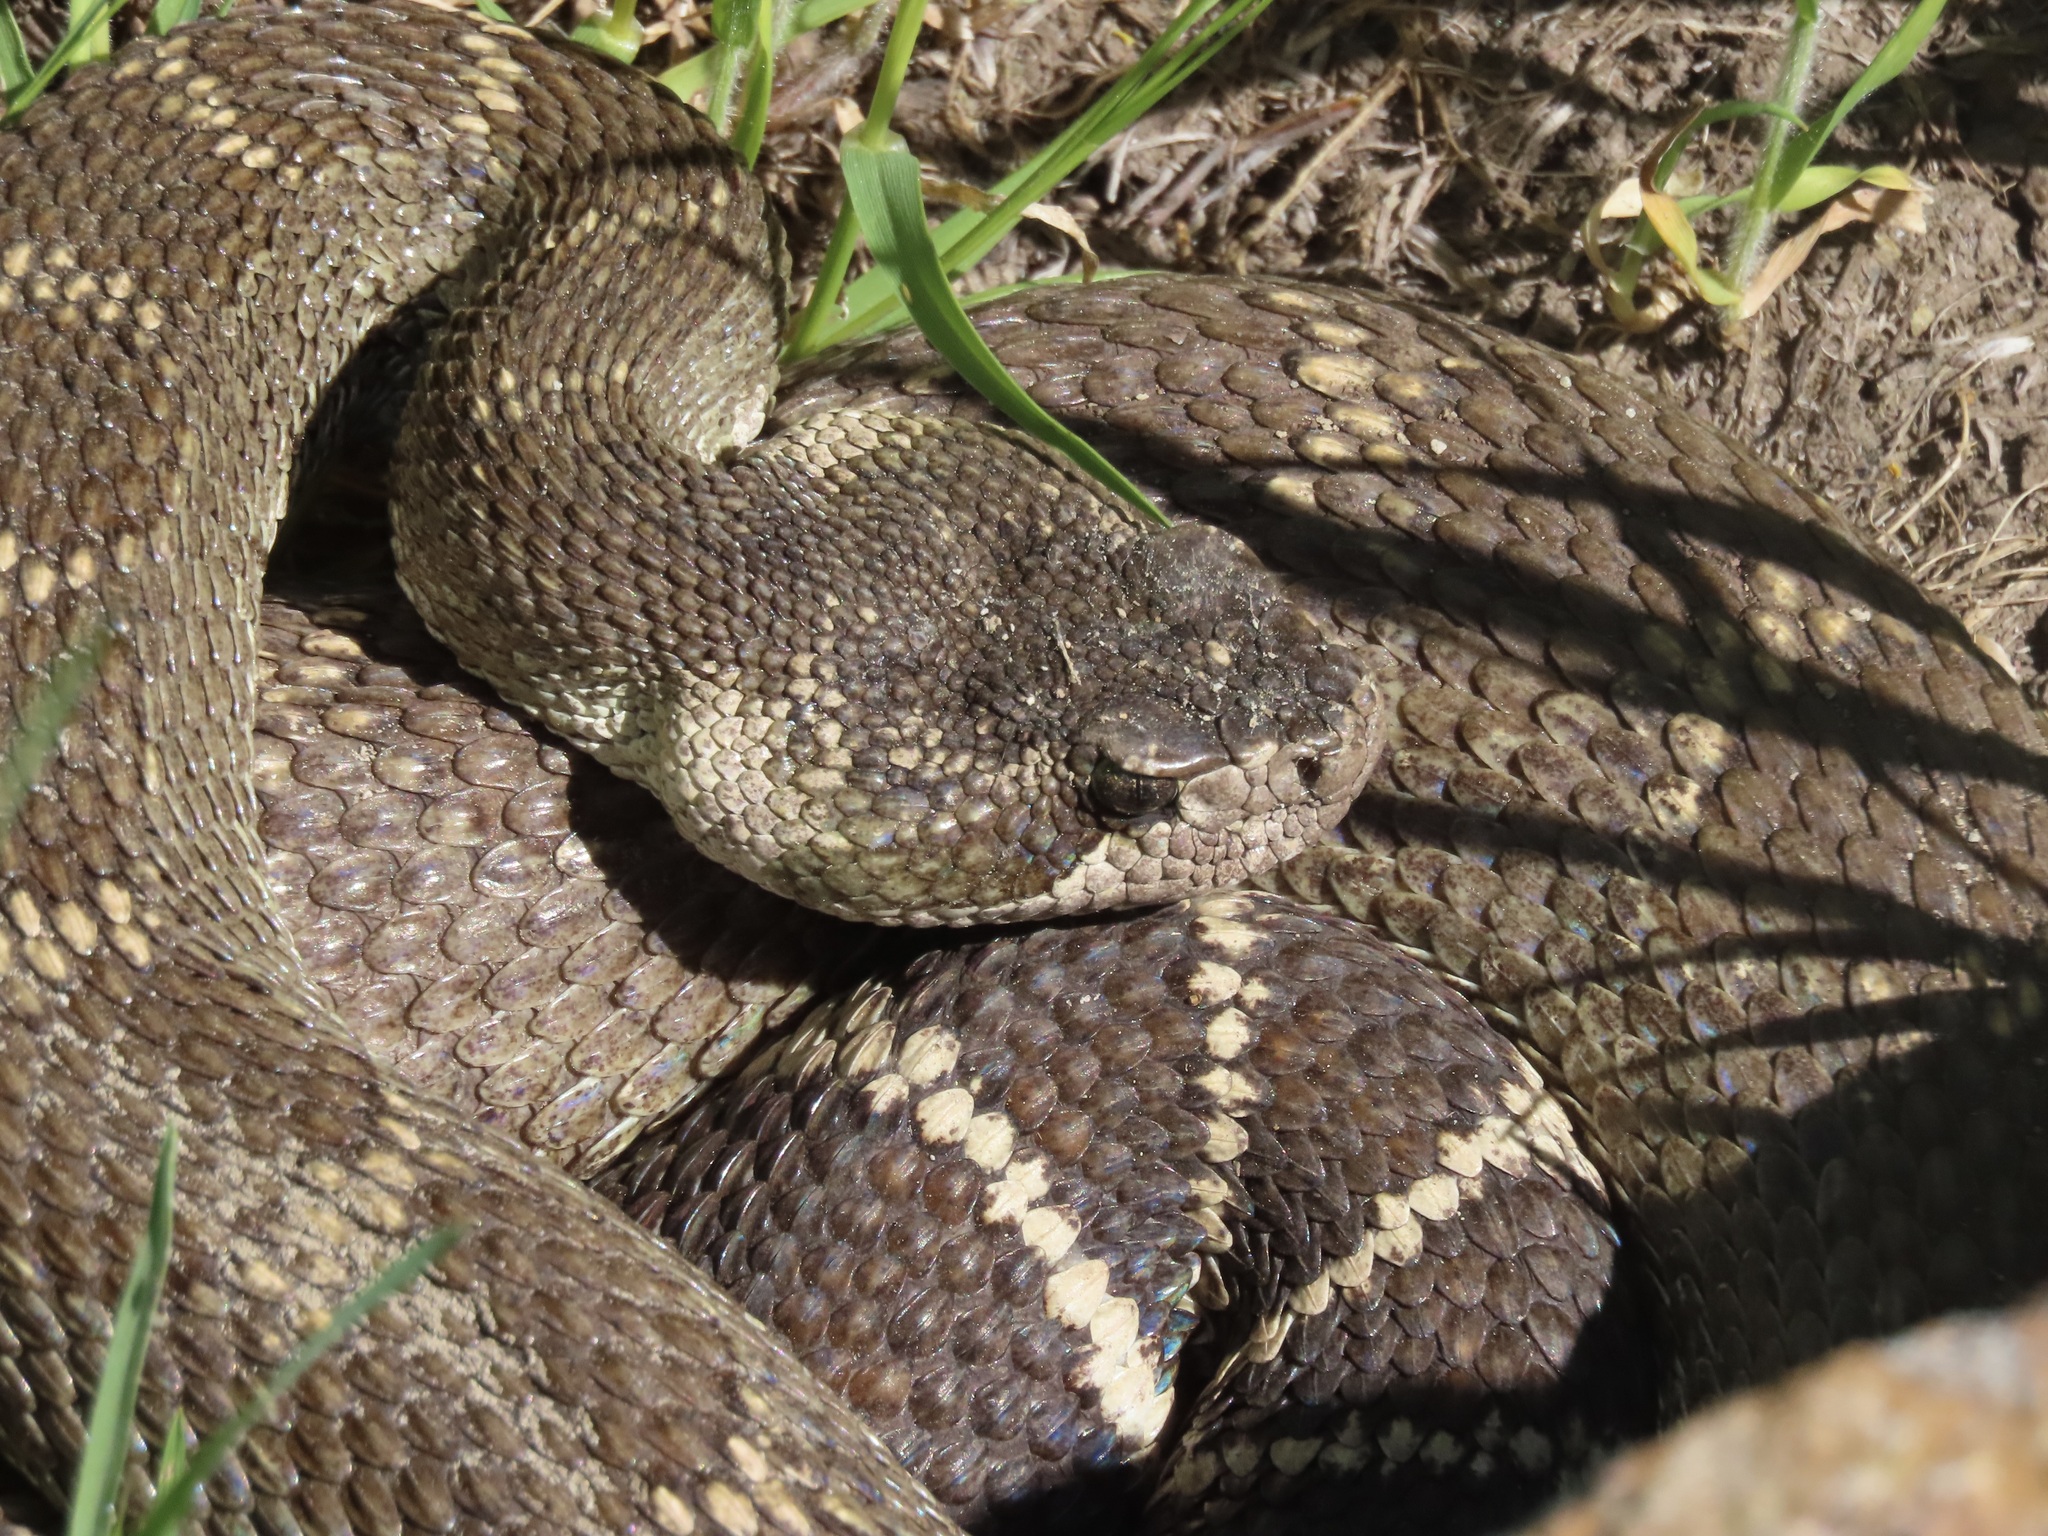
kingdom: Animalia
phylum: Chordata
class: Squamata
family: Viperidae
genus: Crotalus
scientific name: Crotalus oreganus
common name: Abyssus
